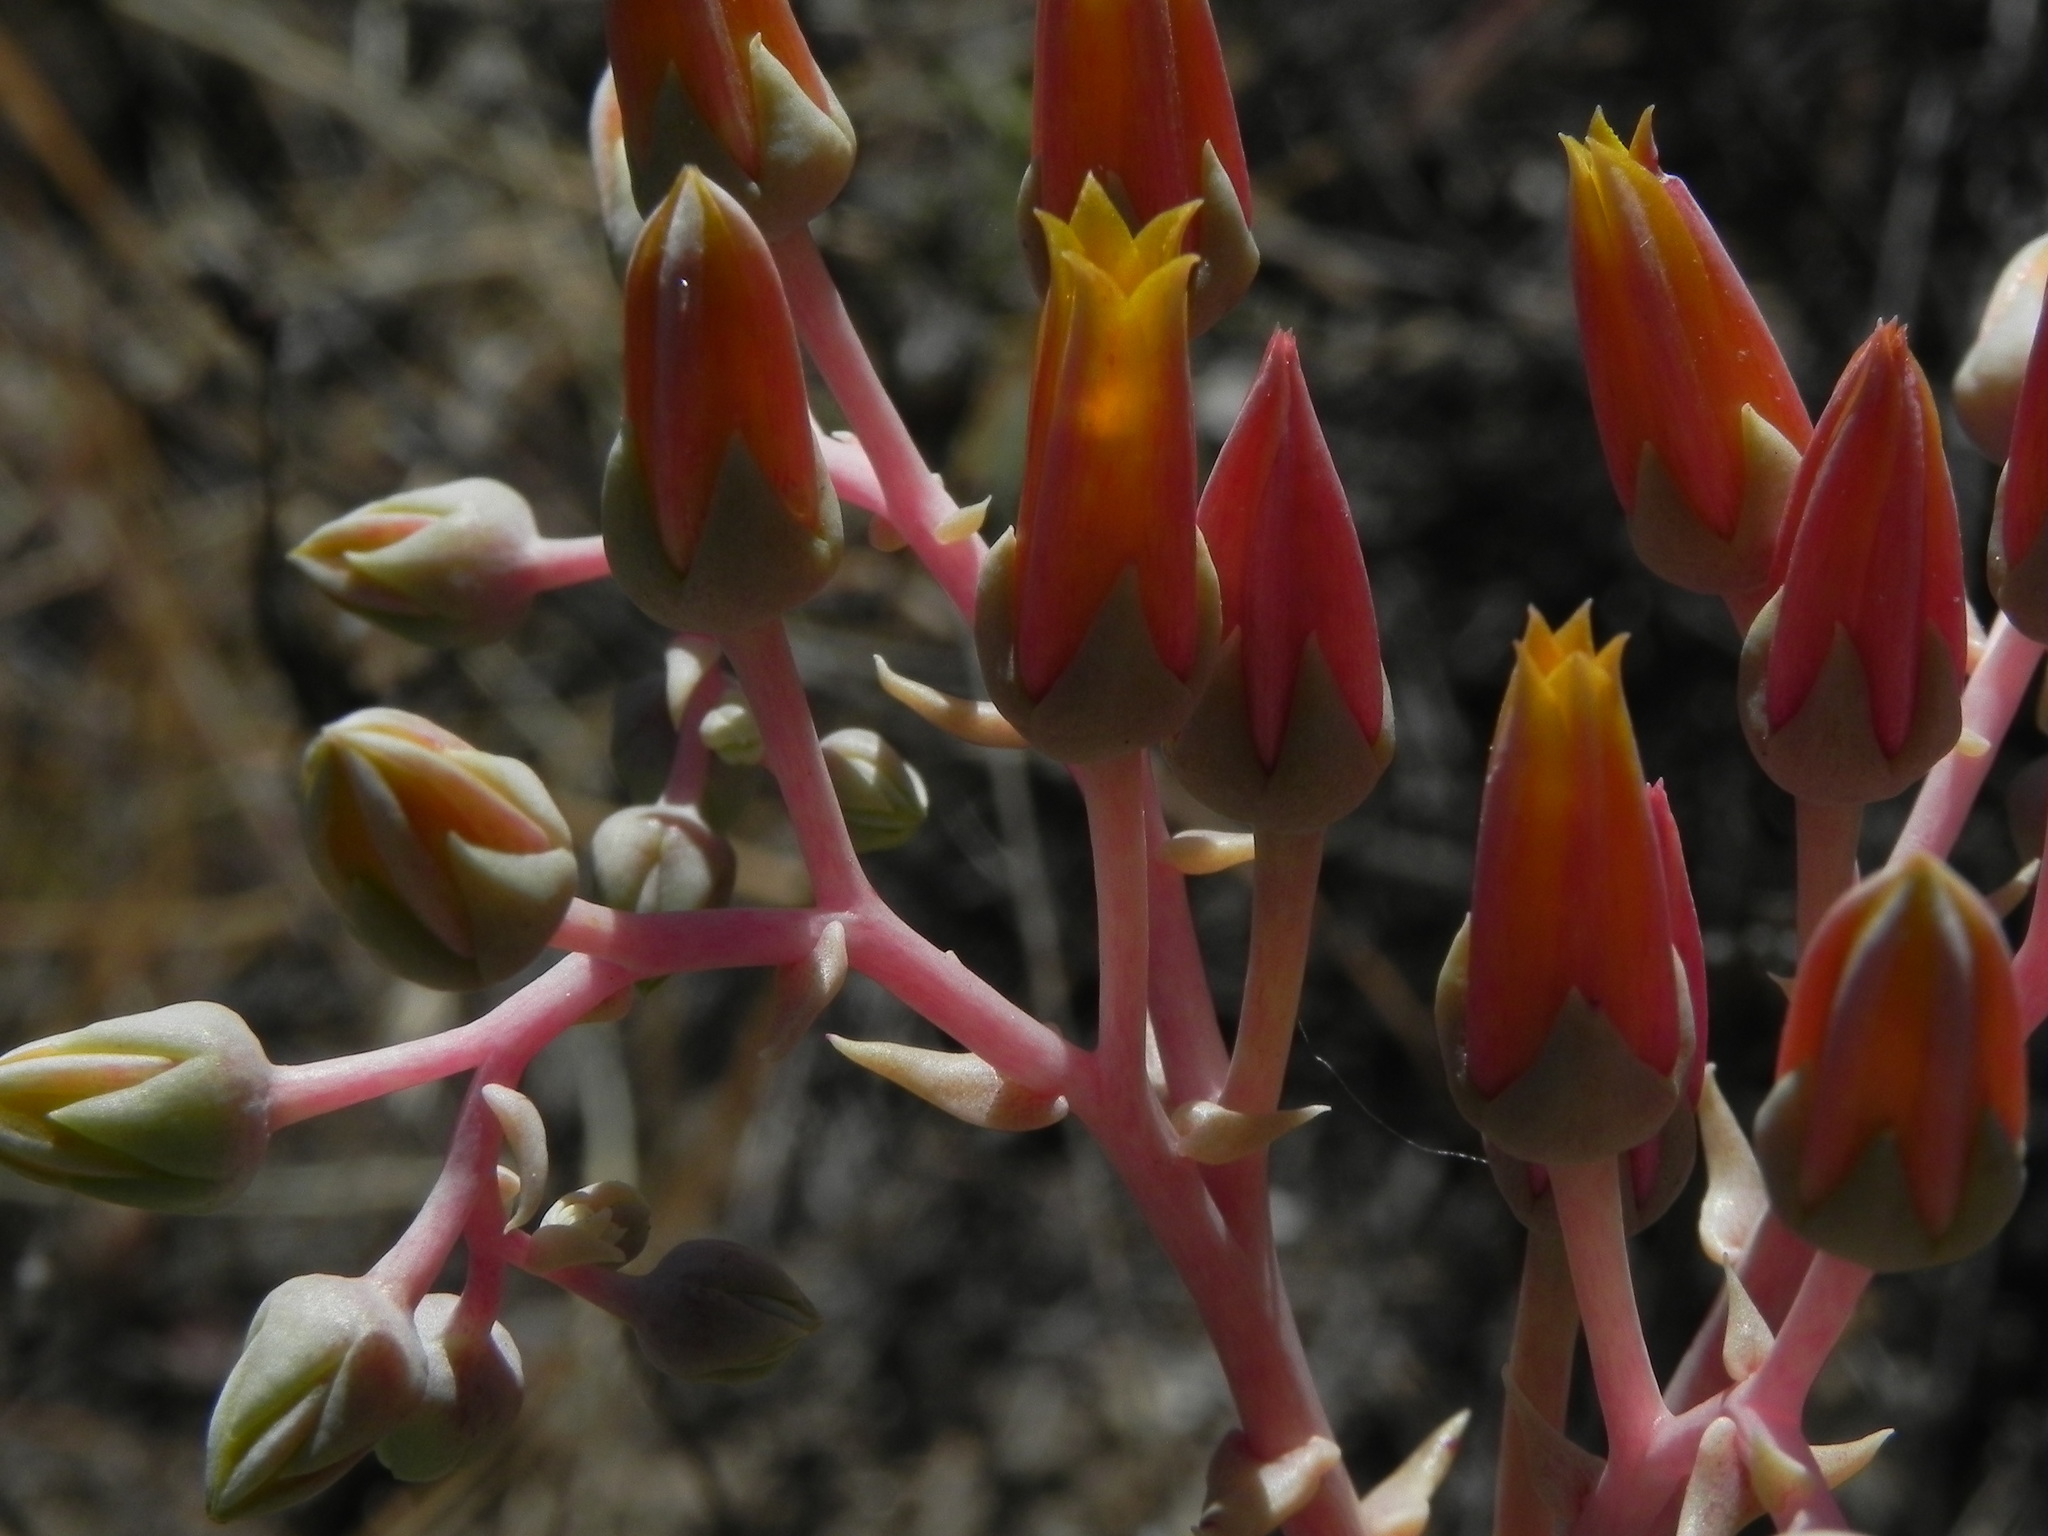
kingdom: Plantae
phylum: Tracheophyta
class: Magnoliopsida
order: Saxifragales
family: Crassulaceae
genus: Dudleya
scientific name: Dudleya lanceolata
